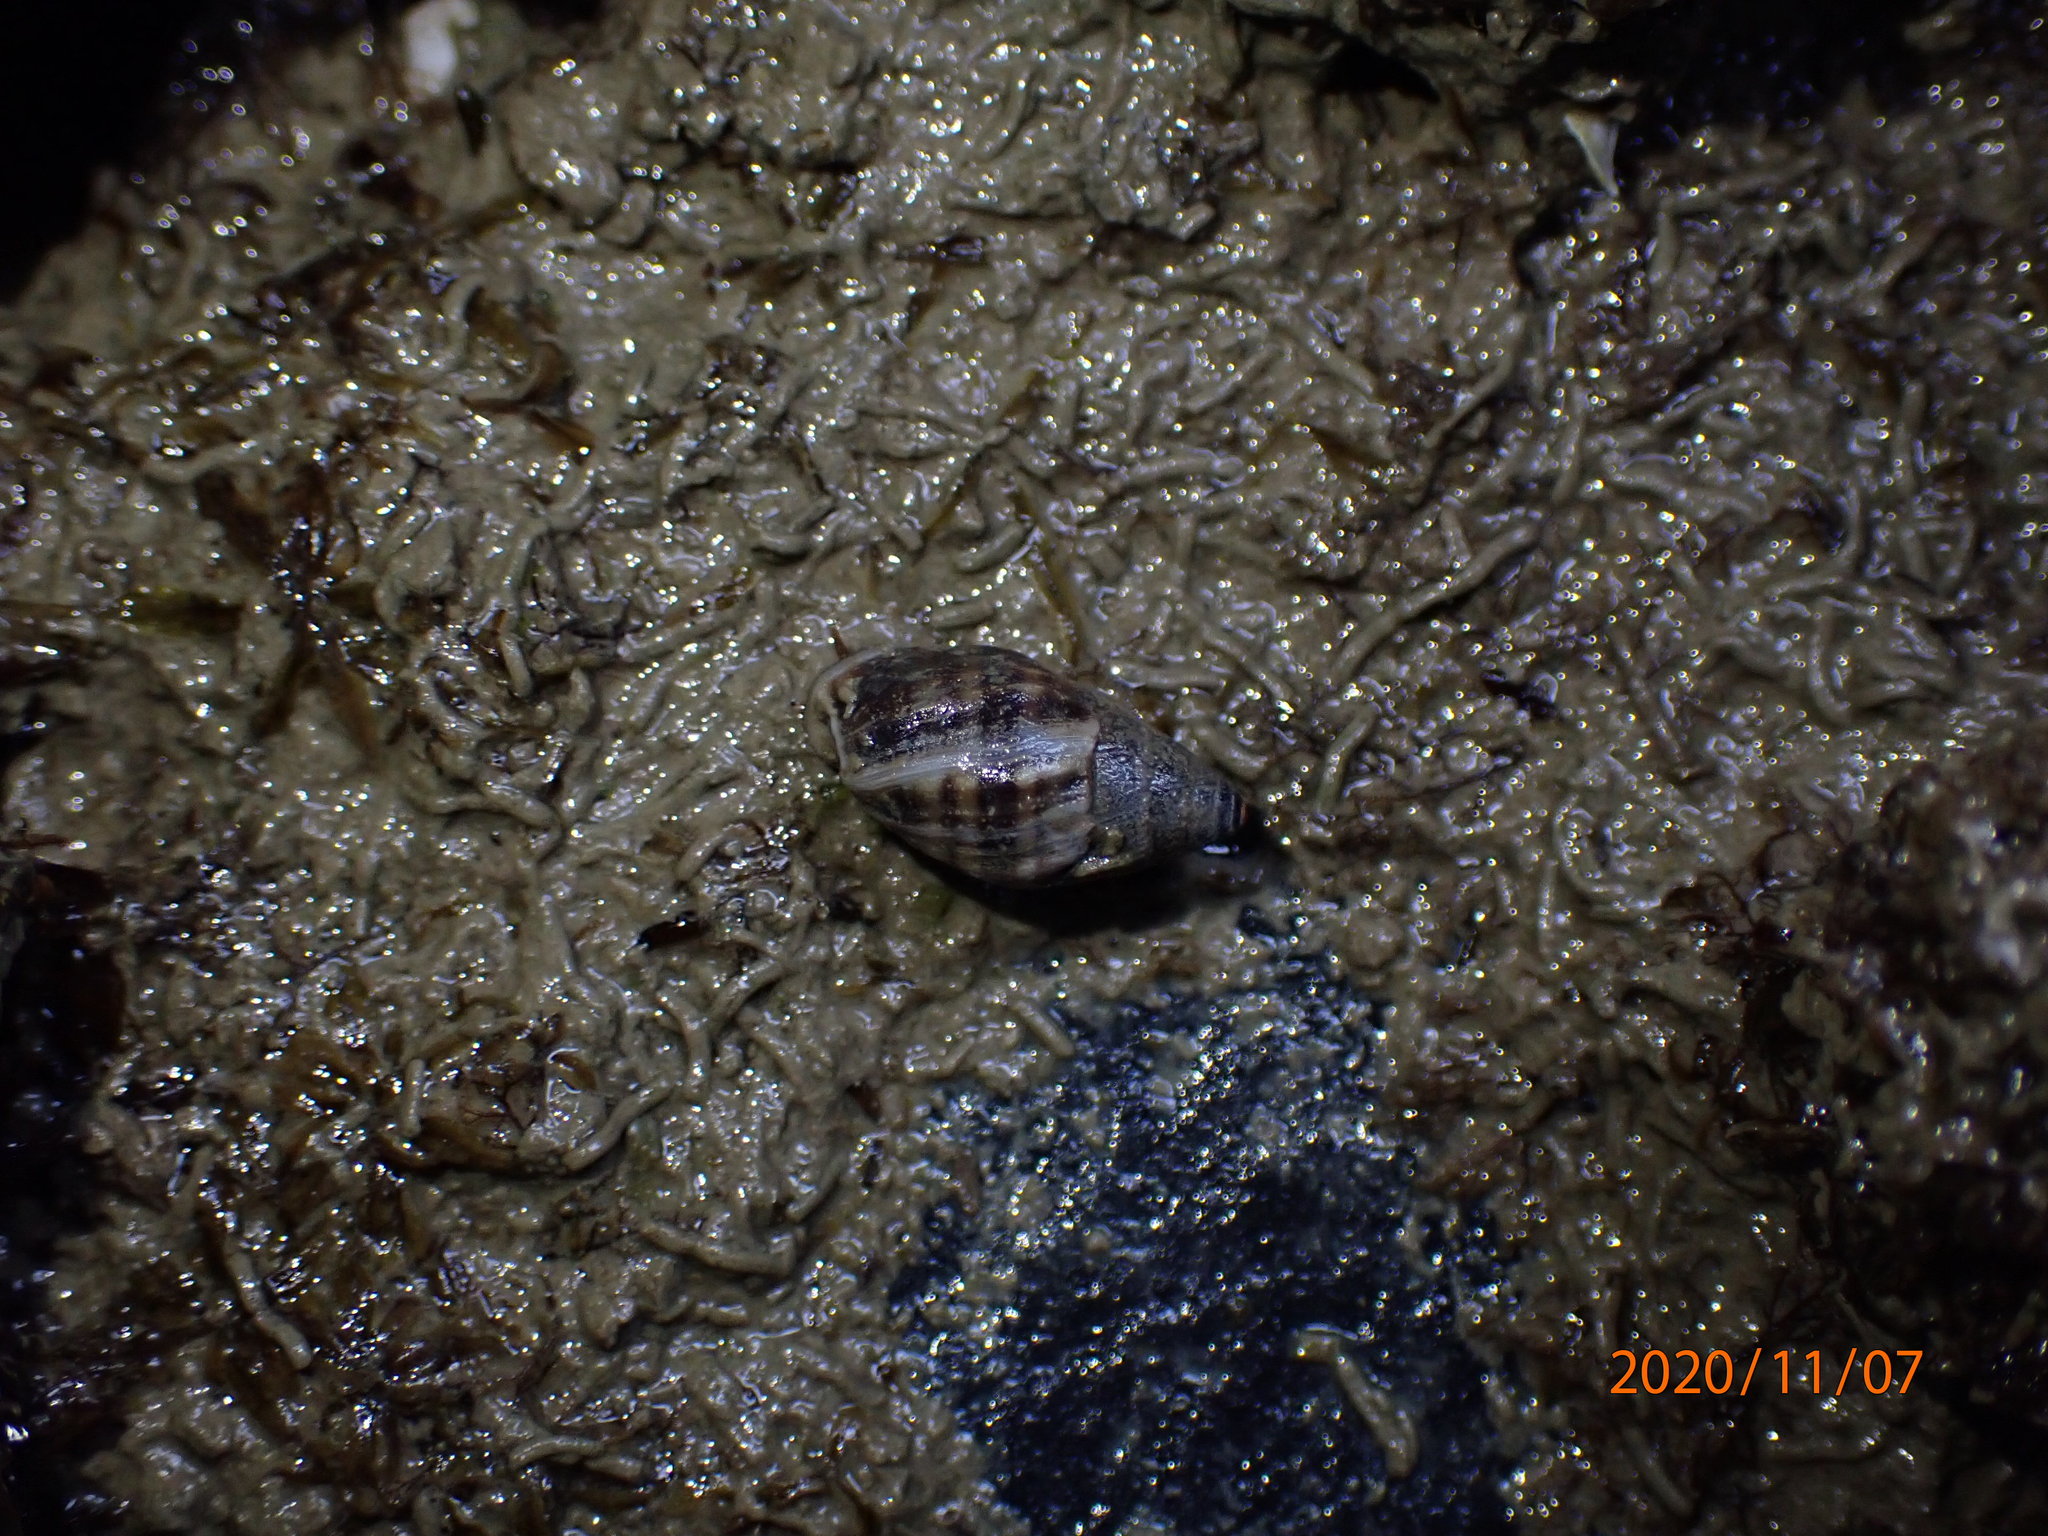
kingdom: Animalia
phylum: Mollusca
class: Gastropoda
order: Ellobiida
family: Ellobiidae
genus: Pleuroloba
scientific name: Pleuroloba costellaris
